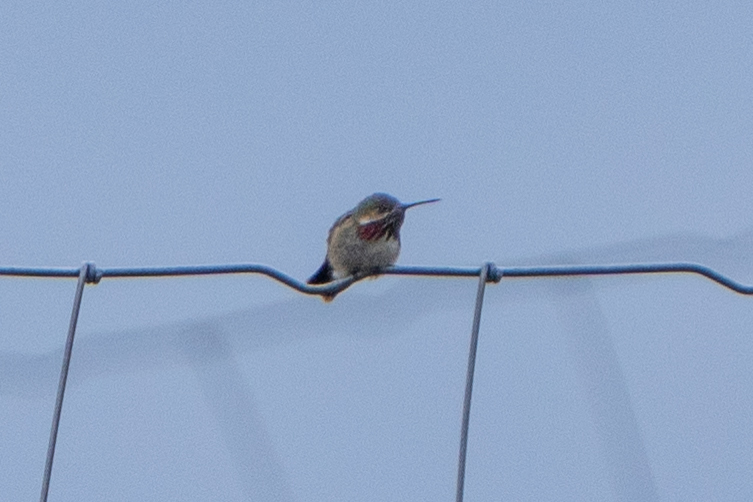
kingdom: Animalia
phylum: Chordata
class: Aves
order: Apodiformes
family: Trochilidae
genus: Selasphorus
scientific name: Selasphorus calliope
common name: Calliope hummingbird
